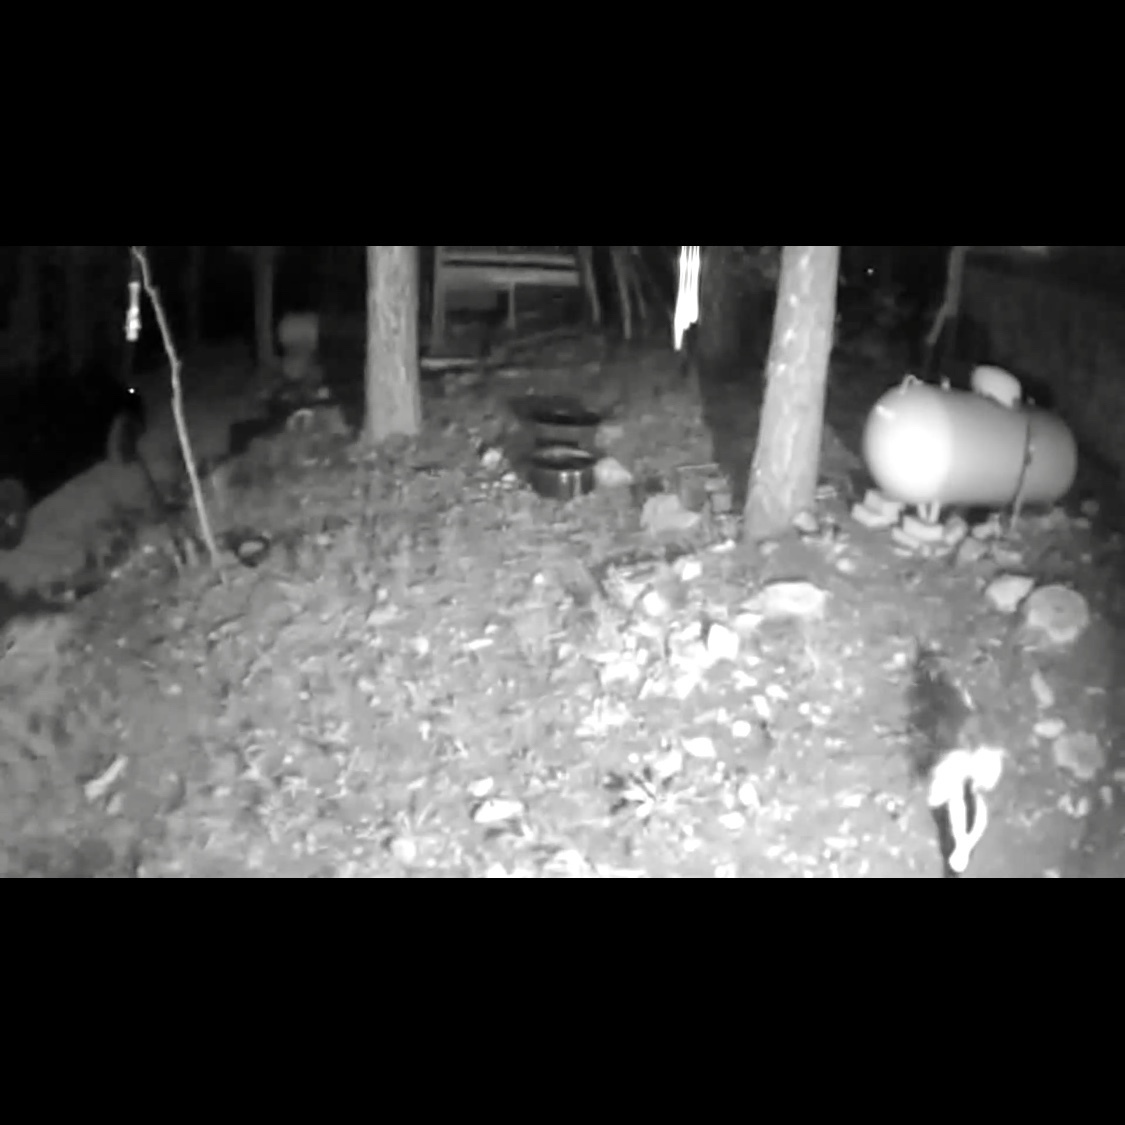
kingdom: Animalia
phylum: Chordata
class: Mammalia
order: Carnivora
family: Mephitidae
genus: Mephitis
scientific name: Mephitis mephitis
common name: Striped skunk
